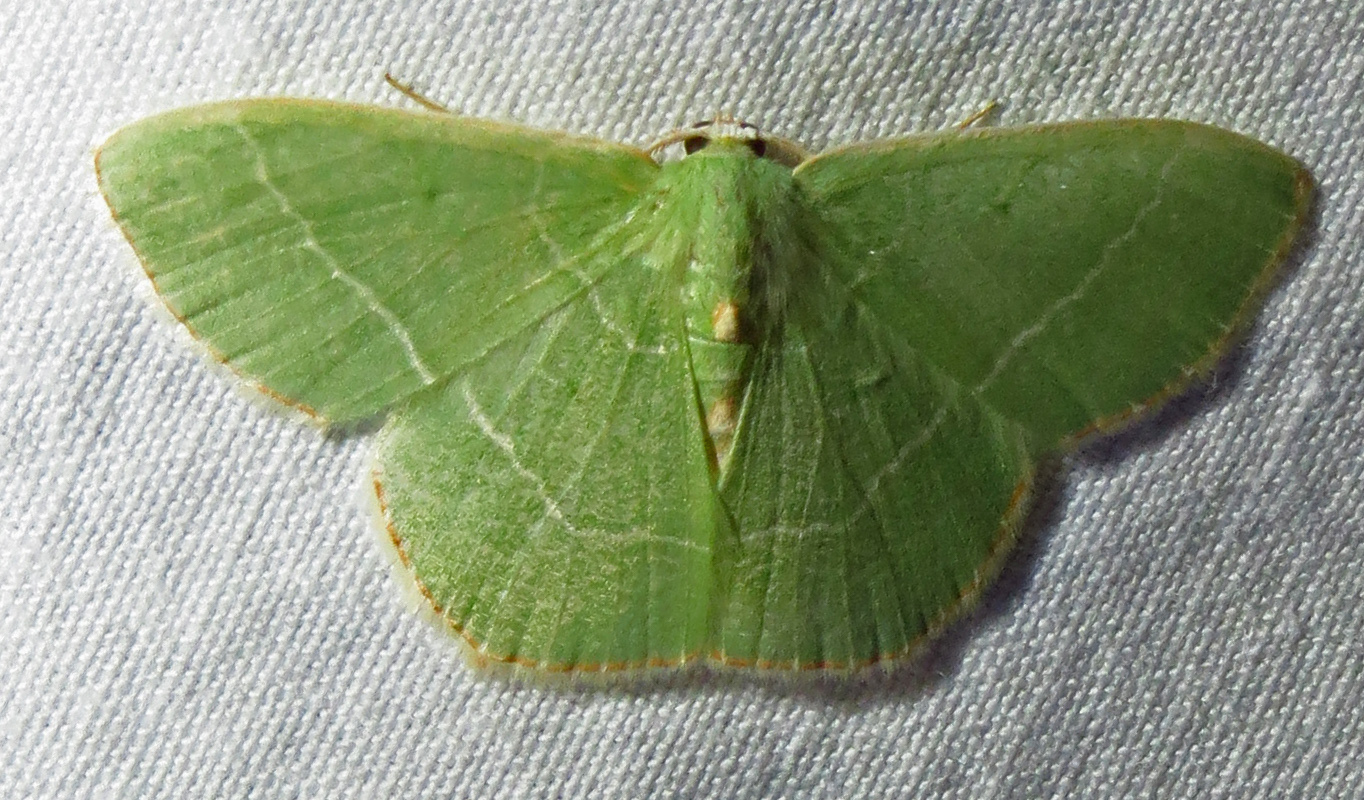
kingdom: Animalia
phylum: Arthropoda
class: Insecta
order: Lepidoptera
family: Geometridae
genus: Nemoria
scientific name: Nemoria bistriaria
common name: Red-fringed emerald
